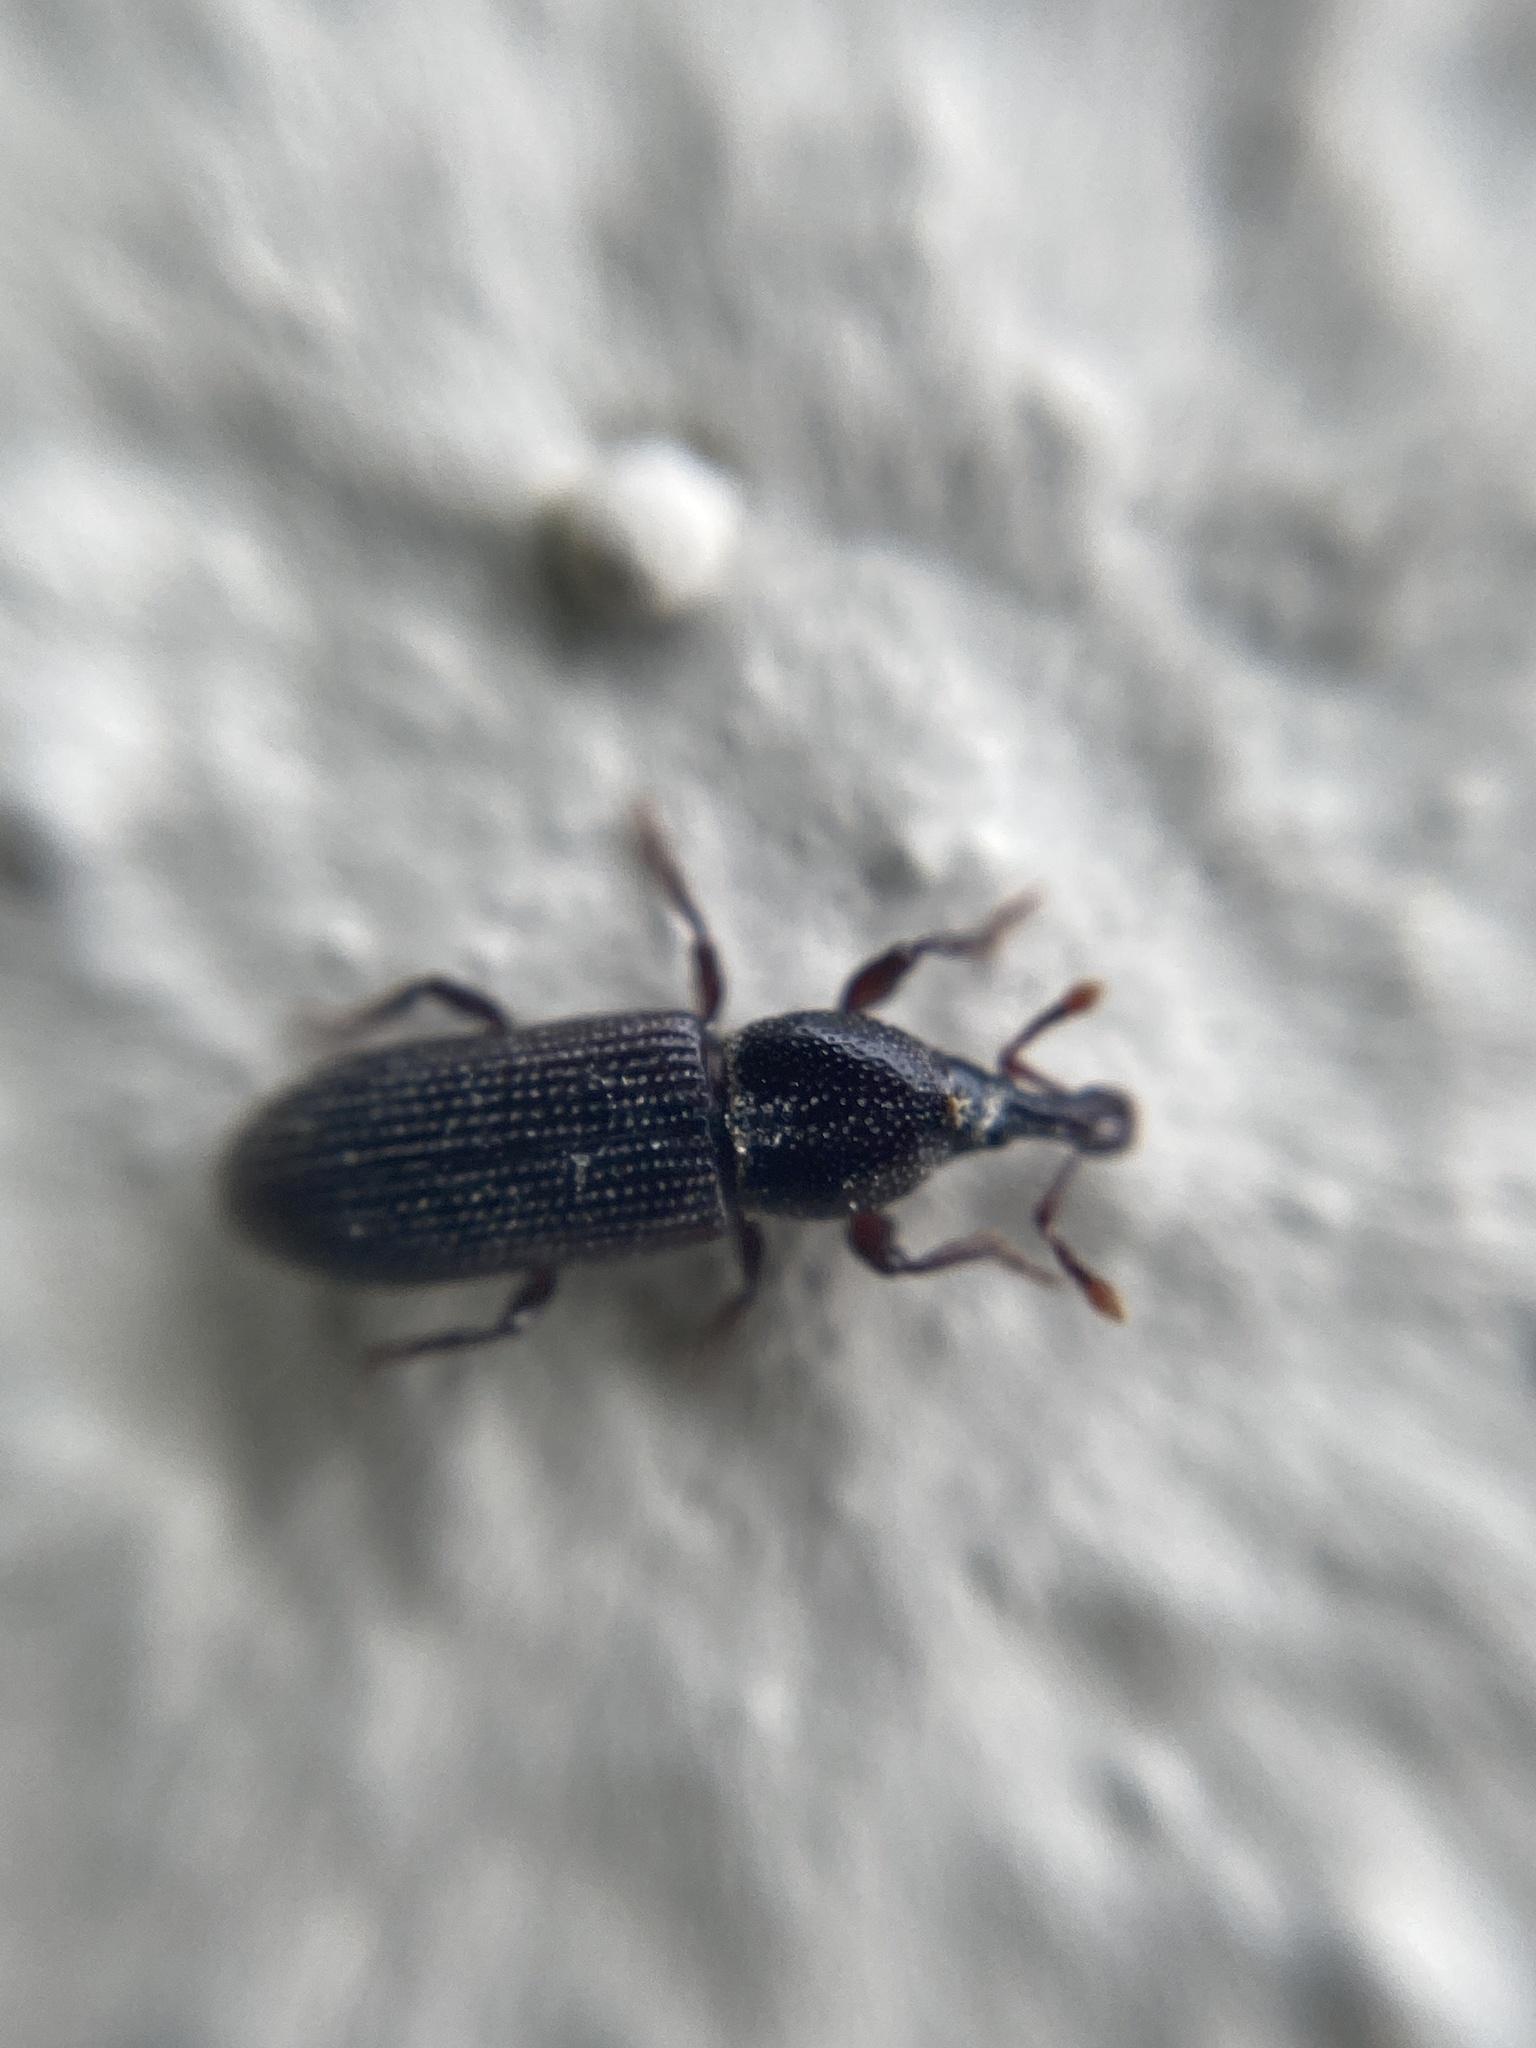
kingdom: Animalia
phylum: Arthropoda
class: Insecta
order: Coleoptera
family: Curculionidae
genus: Cossonus
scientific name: Cossonus linearis
